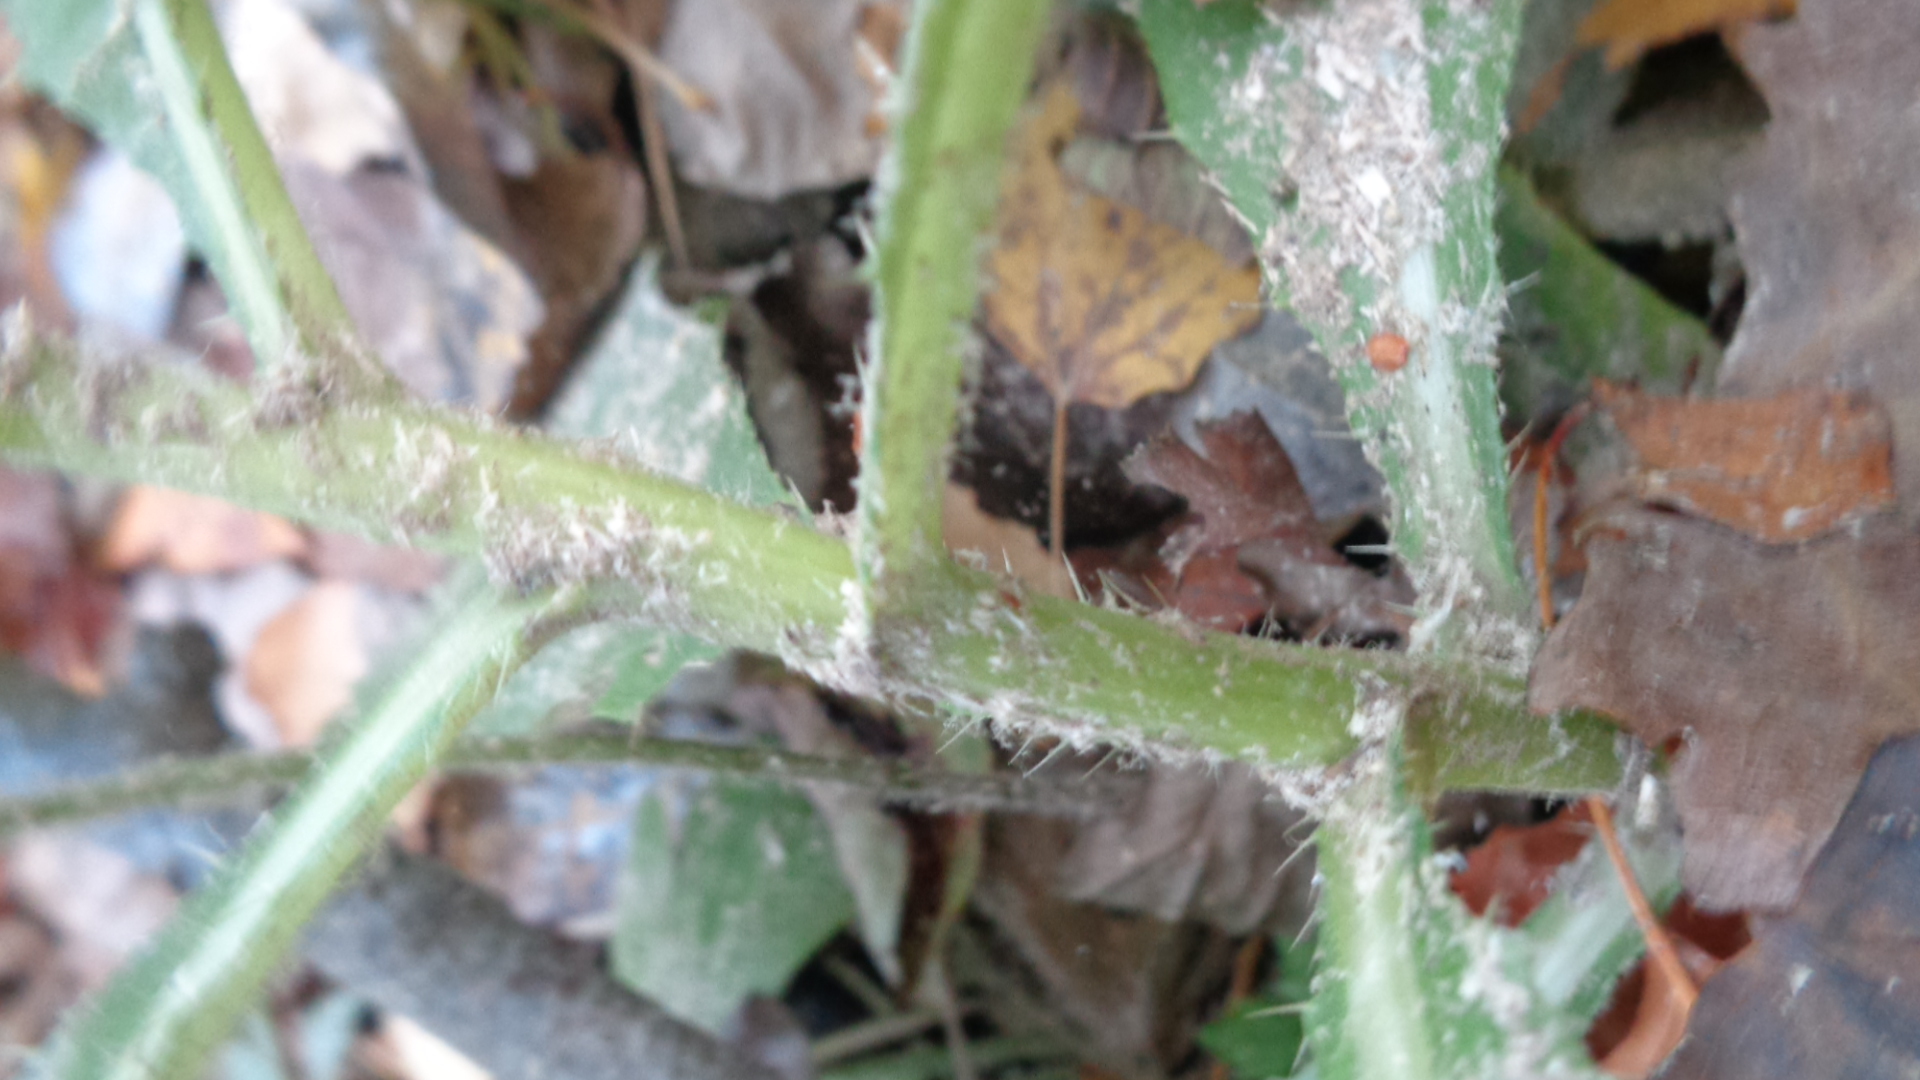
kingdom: Plantae
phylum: Tracheophyta
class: Magnoliopsida
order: Asterales
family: Asteraceae
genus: Cirsium
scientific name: Cirsium arvense
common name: Creeping thistle
